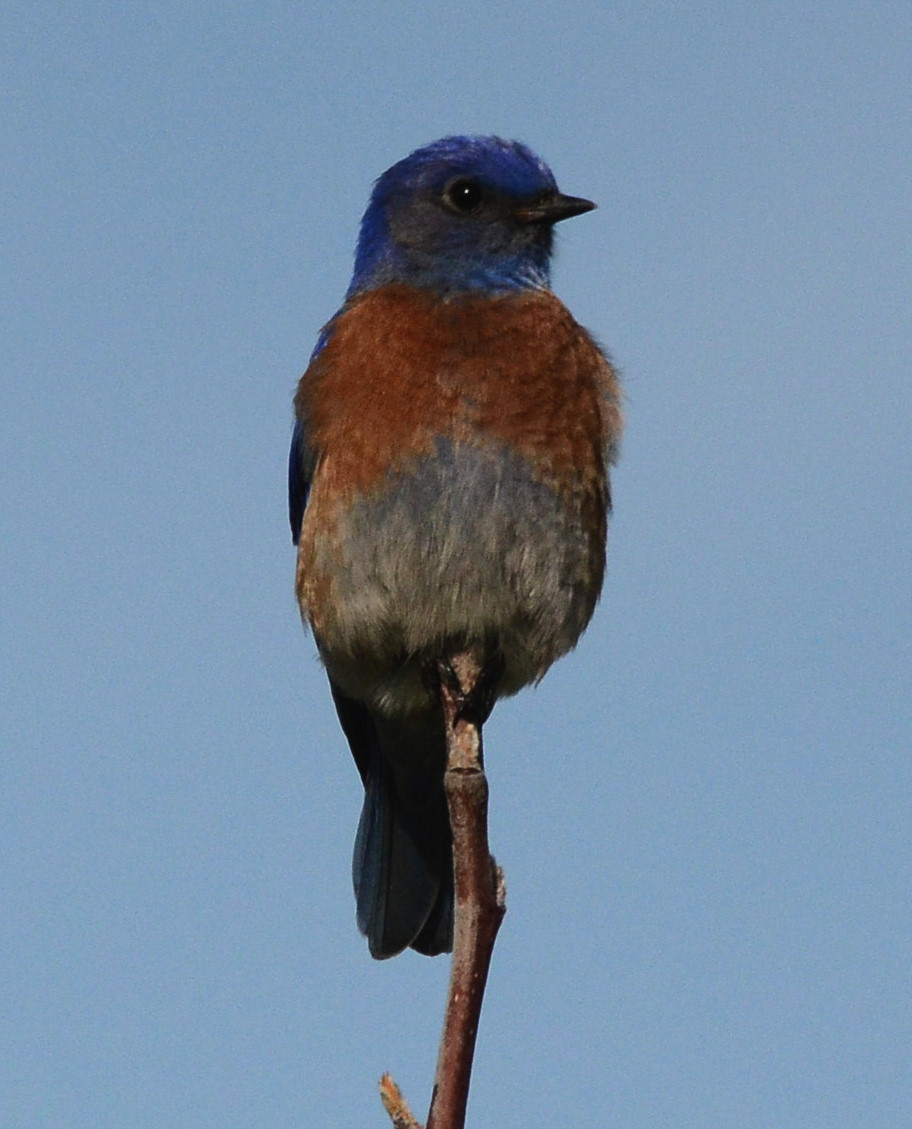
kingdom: Animalia
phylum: Chordata
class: Aves
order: Passeriformes
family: Turdidae
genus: Sialia
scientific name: Sialia mexicana
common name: Western bluebird
